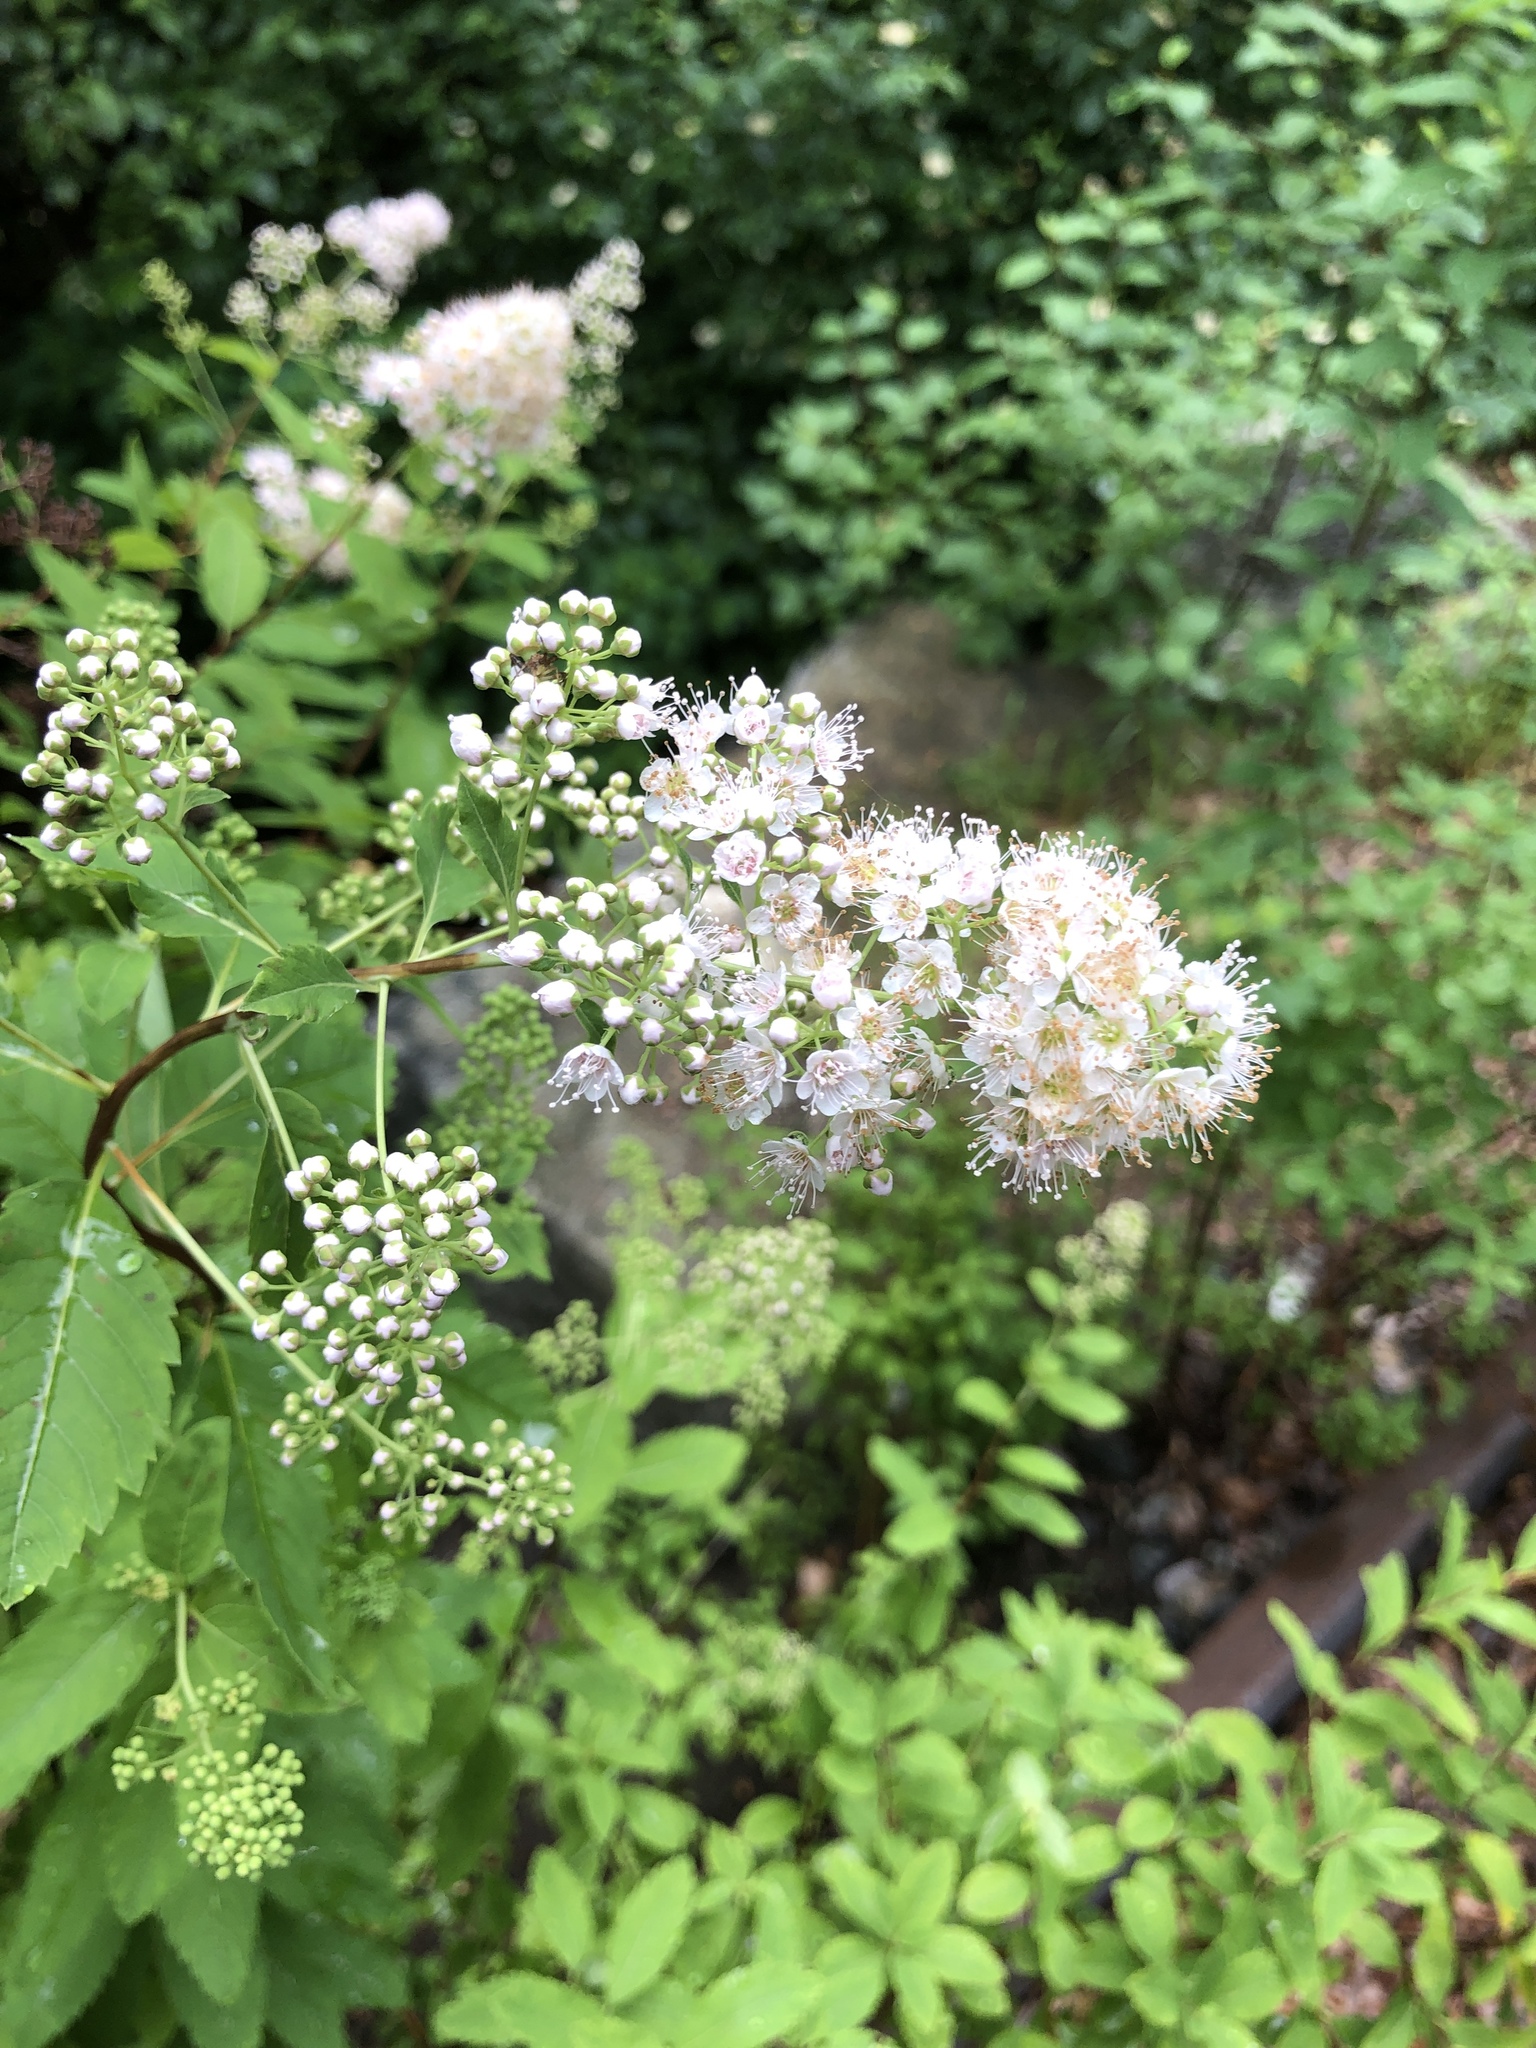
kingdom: Plantae
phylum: Tracheophyta
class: Magnoliopsida
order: Rosales
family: Rosaceae
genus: Spiraea
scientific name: Spiraea alba
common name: Pale bridewort
